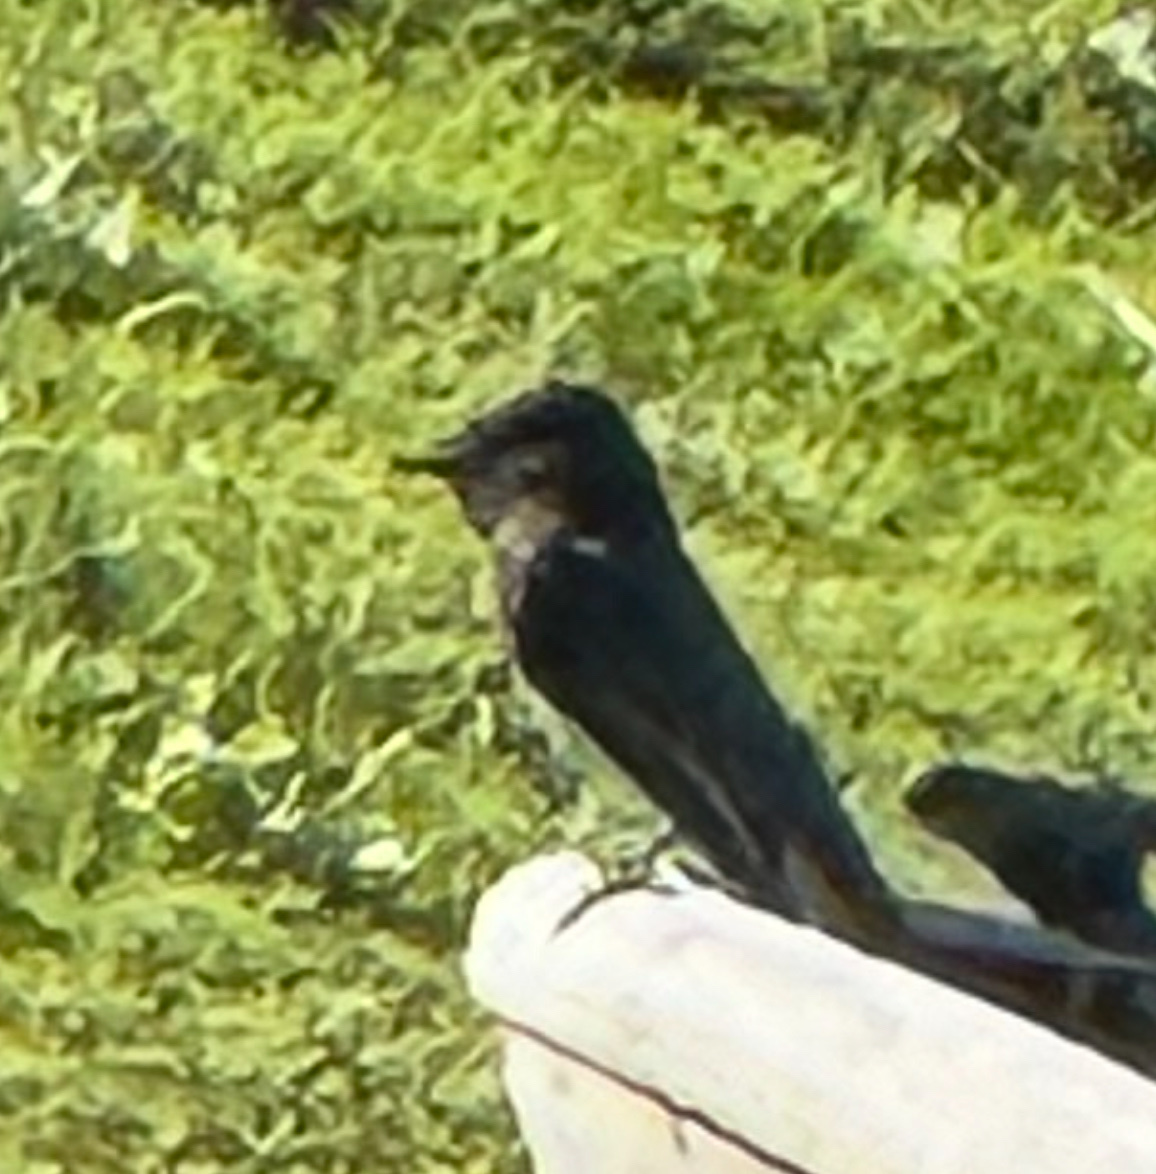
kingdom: Animalia
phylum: Chordata
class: Aves
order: Passeriformes
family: Tyrannidae
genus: Sayornis
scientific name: Sayornis nigricans
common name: Black phoebe
